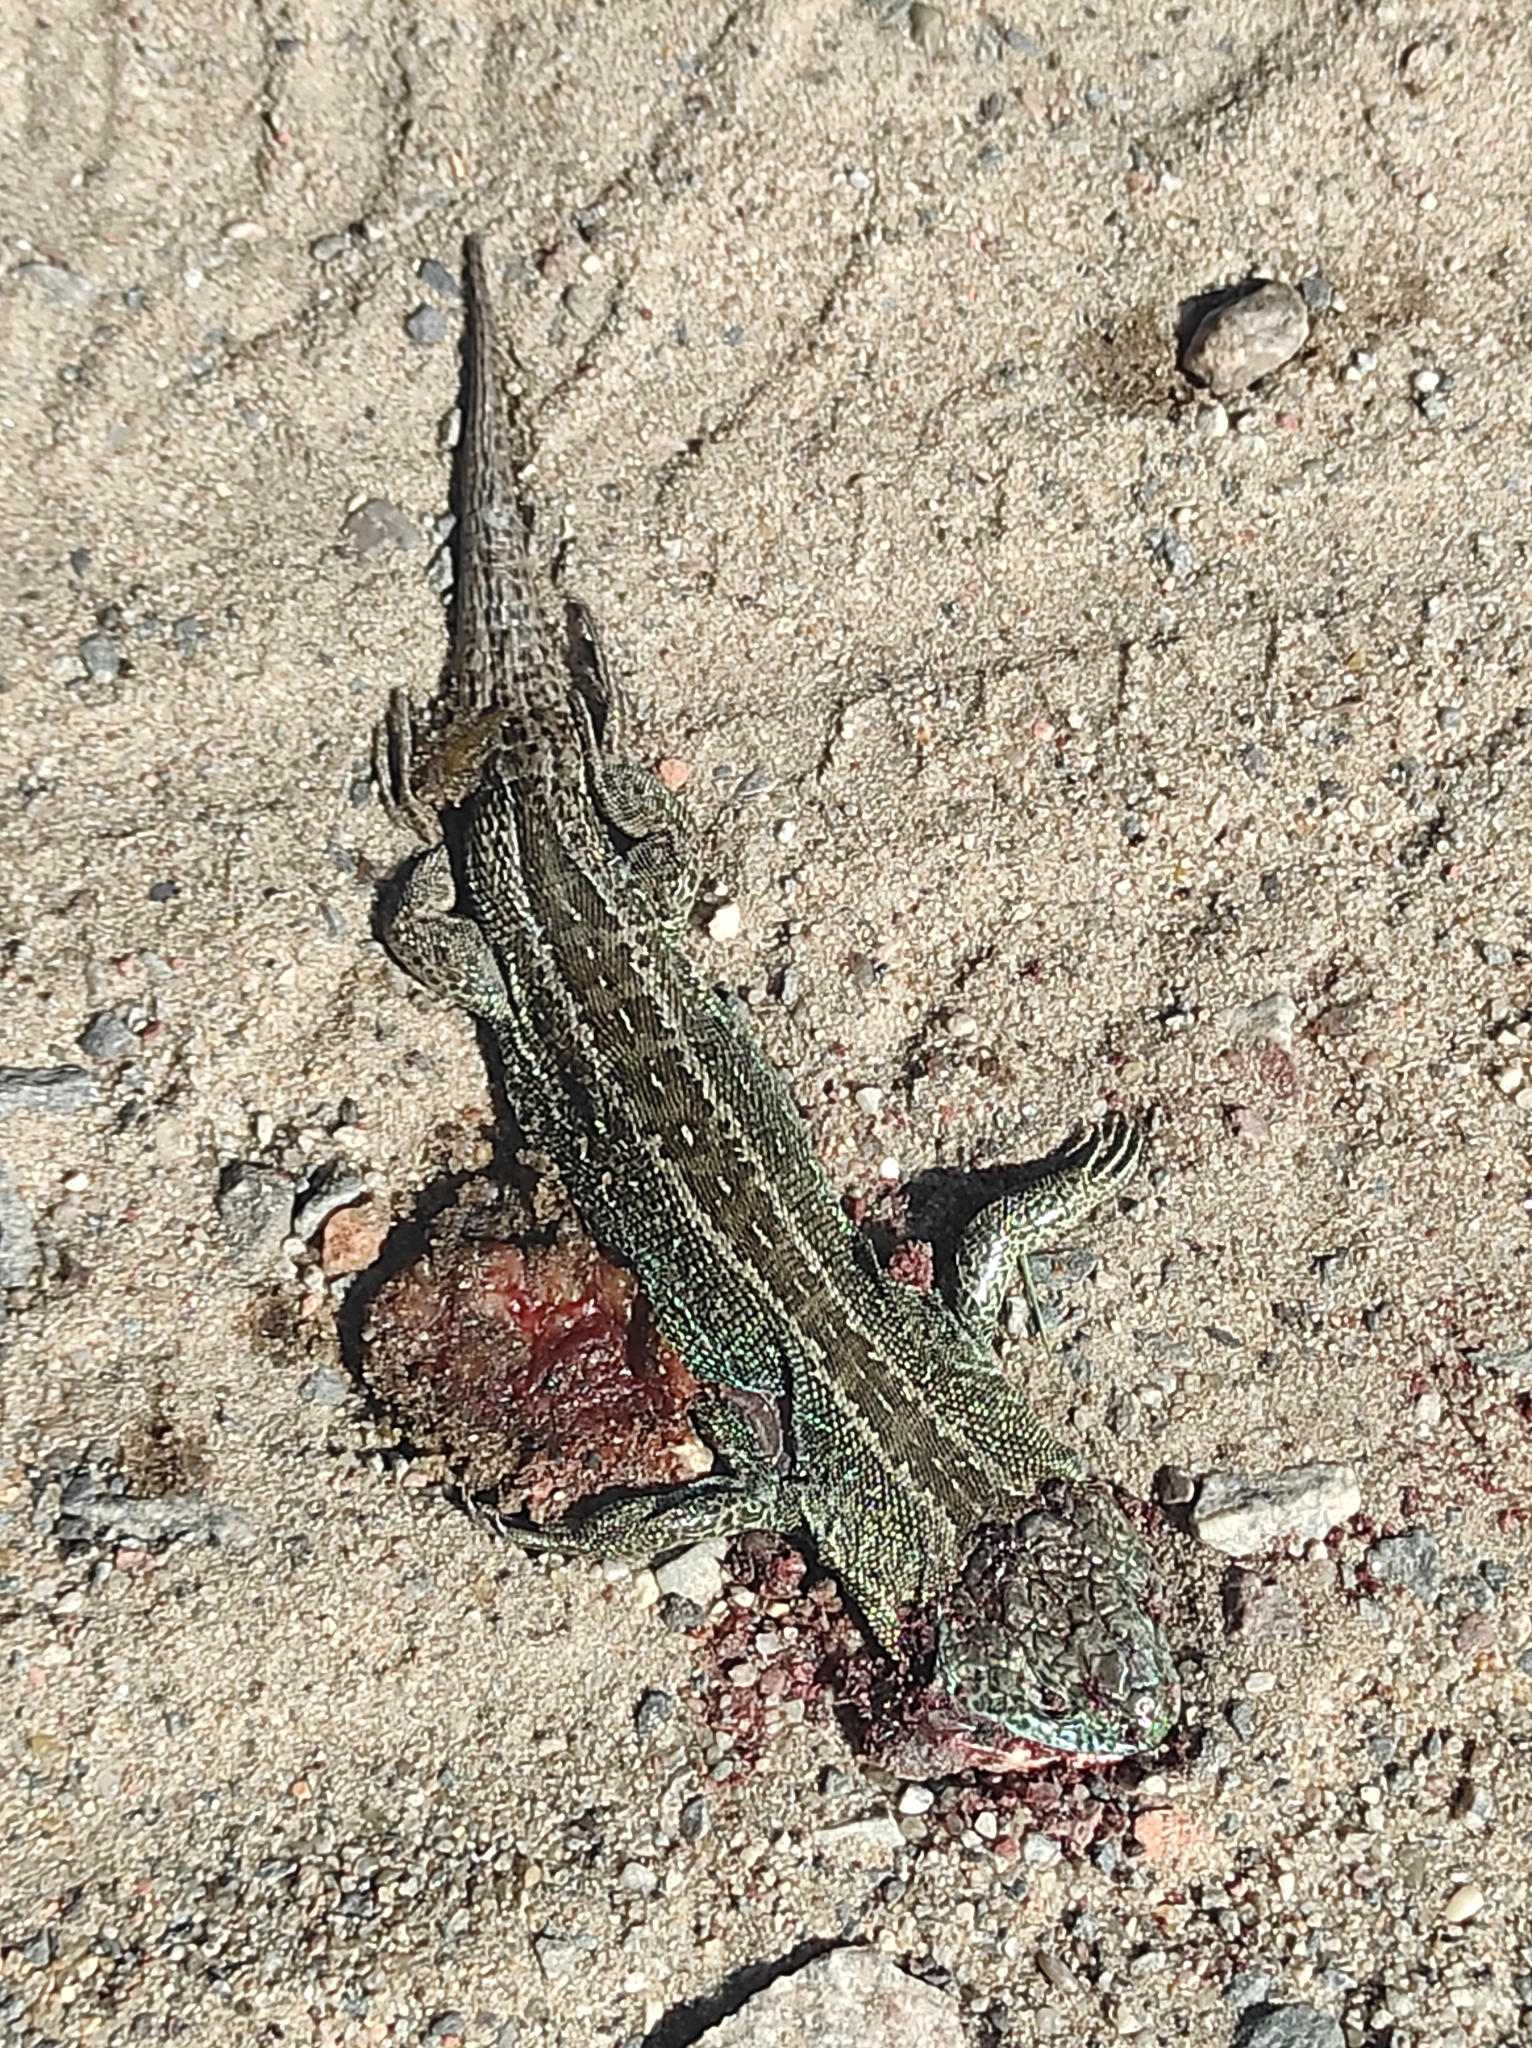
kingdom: Animalia
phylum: Chordata
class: Squamata
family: Lacertidae
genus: Lacerta
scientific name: Lacerta agilis
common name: Sand lizard
